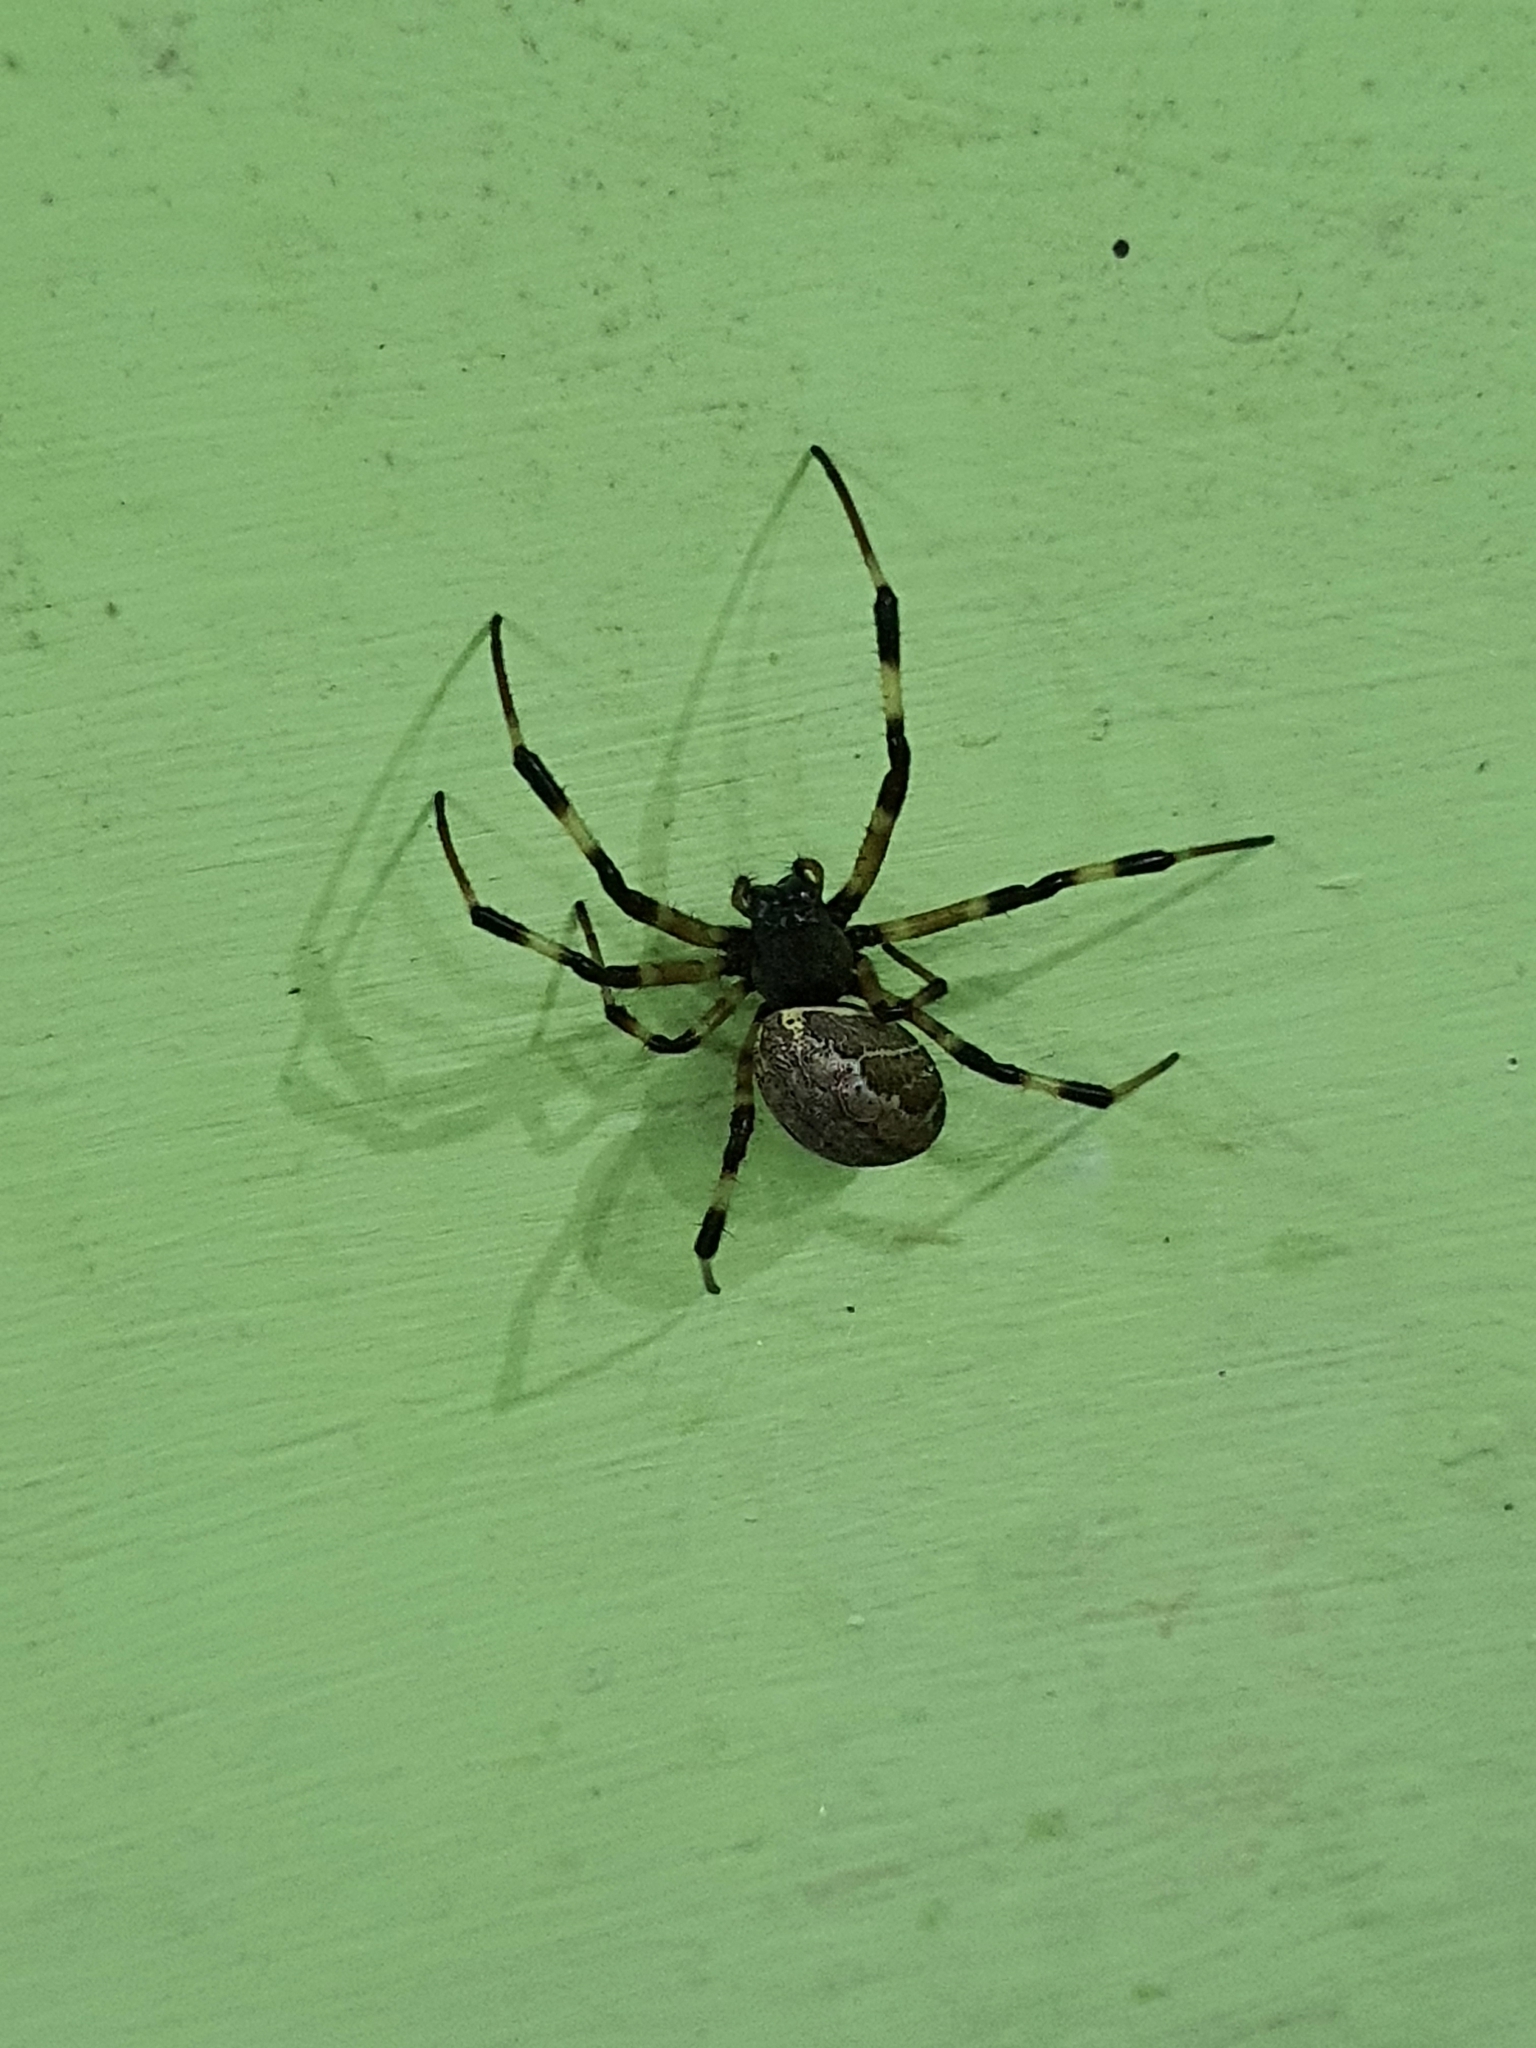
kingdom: Animalia
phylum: Arthropoda
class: Arachnida
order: Araneae
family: Araneidae
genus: Nephilengys
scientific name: Nephilengys malabarensis
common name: Asian hermit spider
